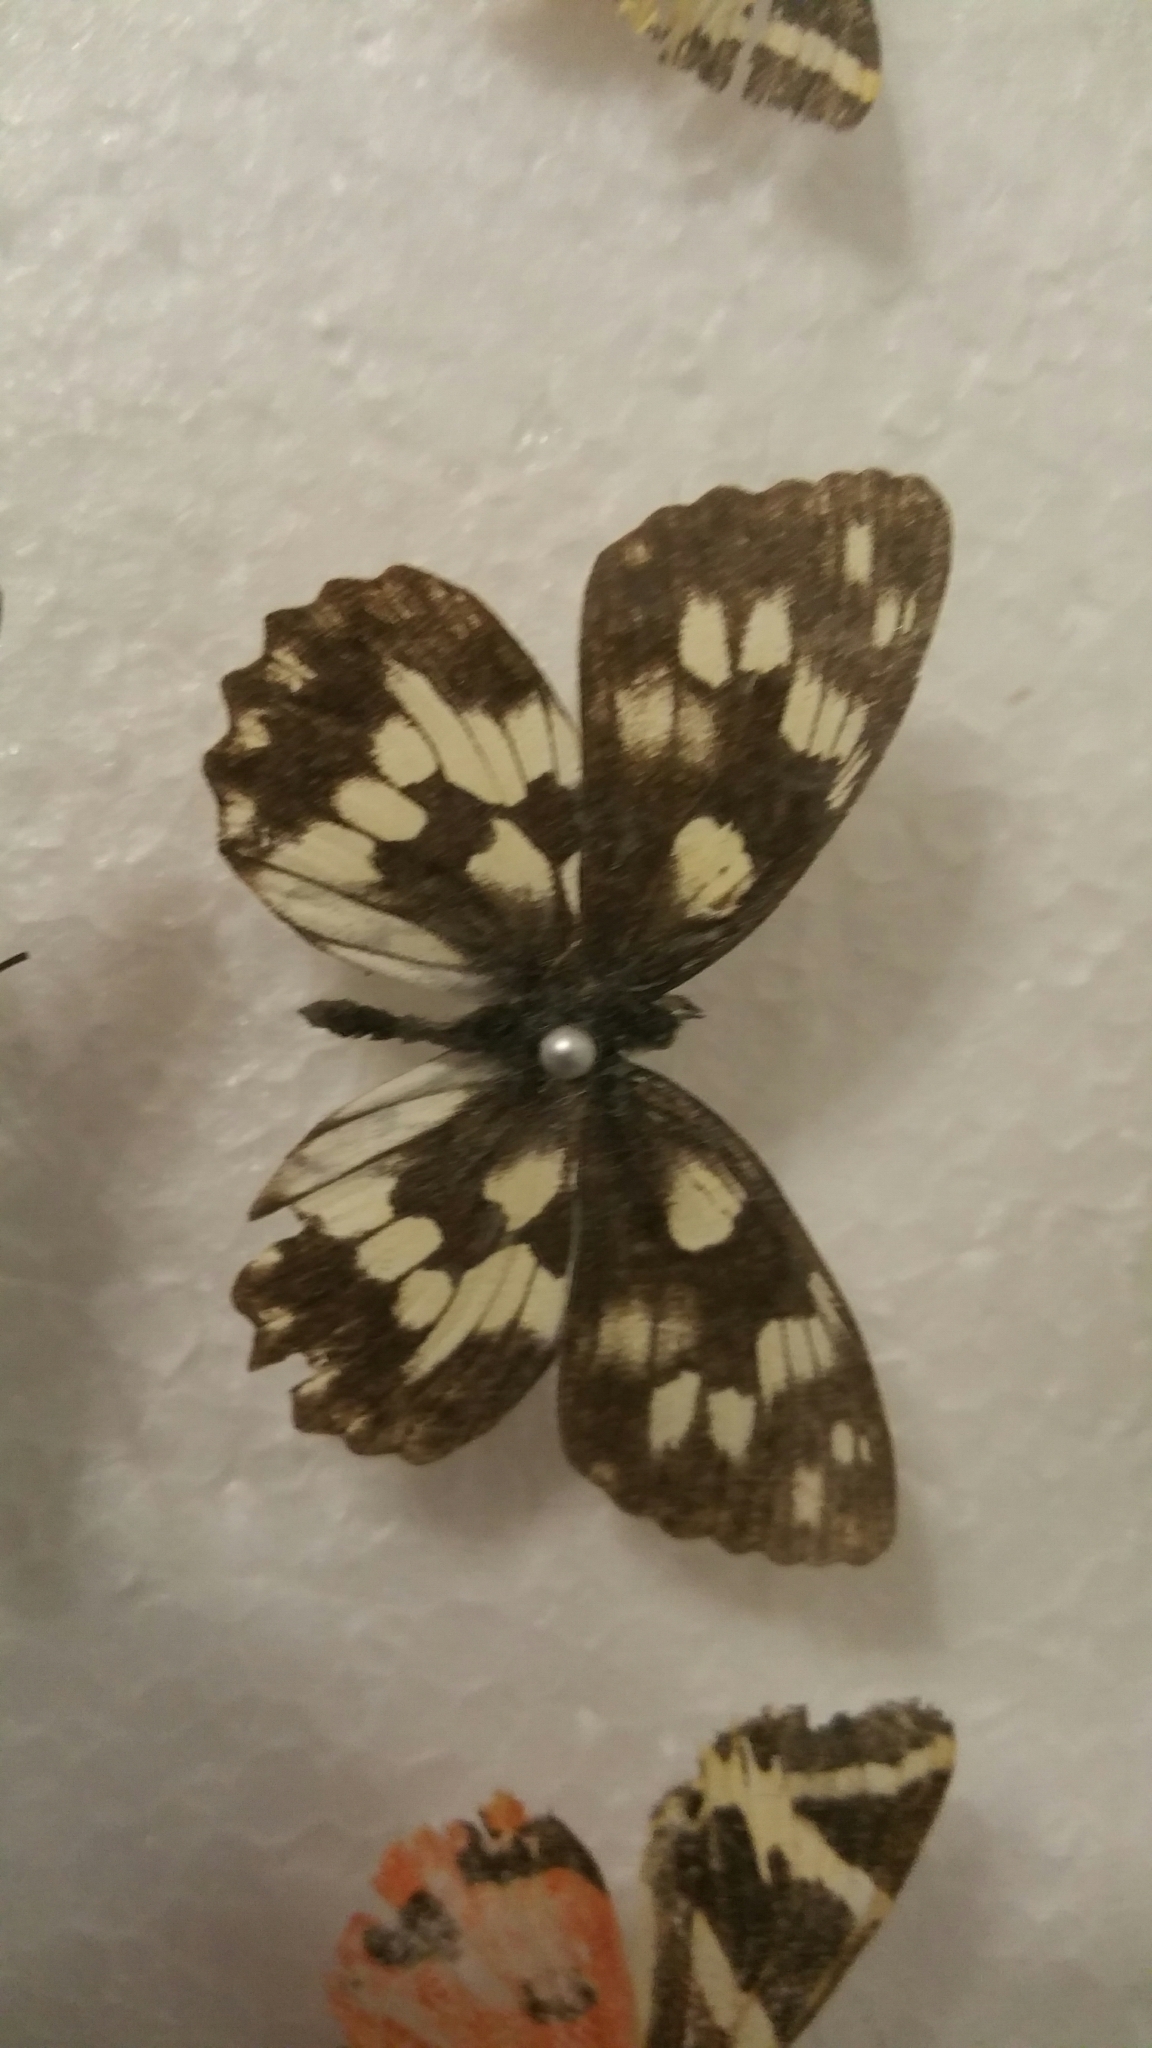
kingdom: Animalia
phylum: Arthropoda
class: Insecta
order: Lepidoptera
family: Nymphalidae
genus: Melanargia
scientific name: Melanargia galathea
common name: Marbled white
